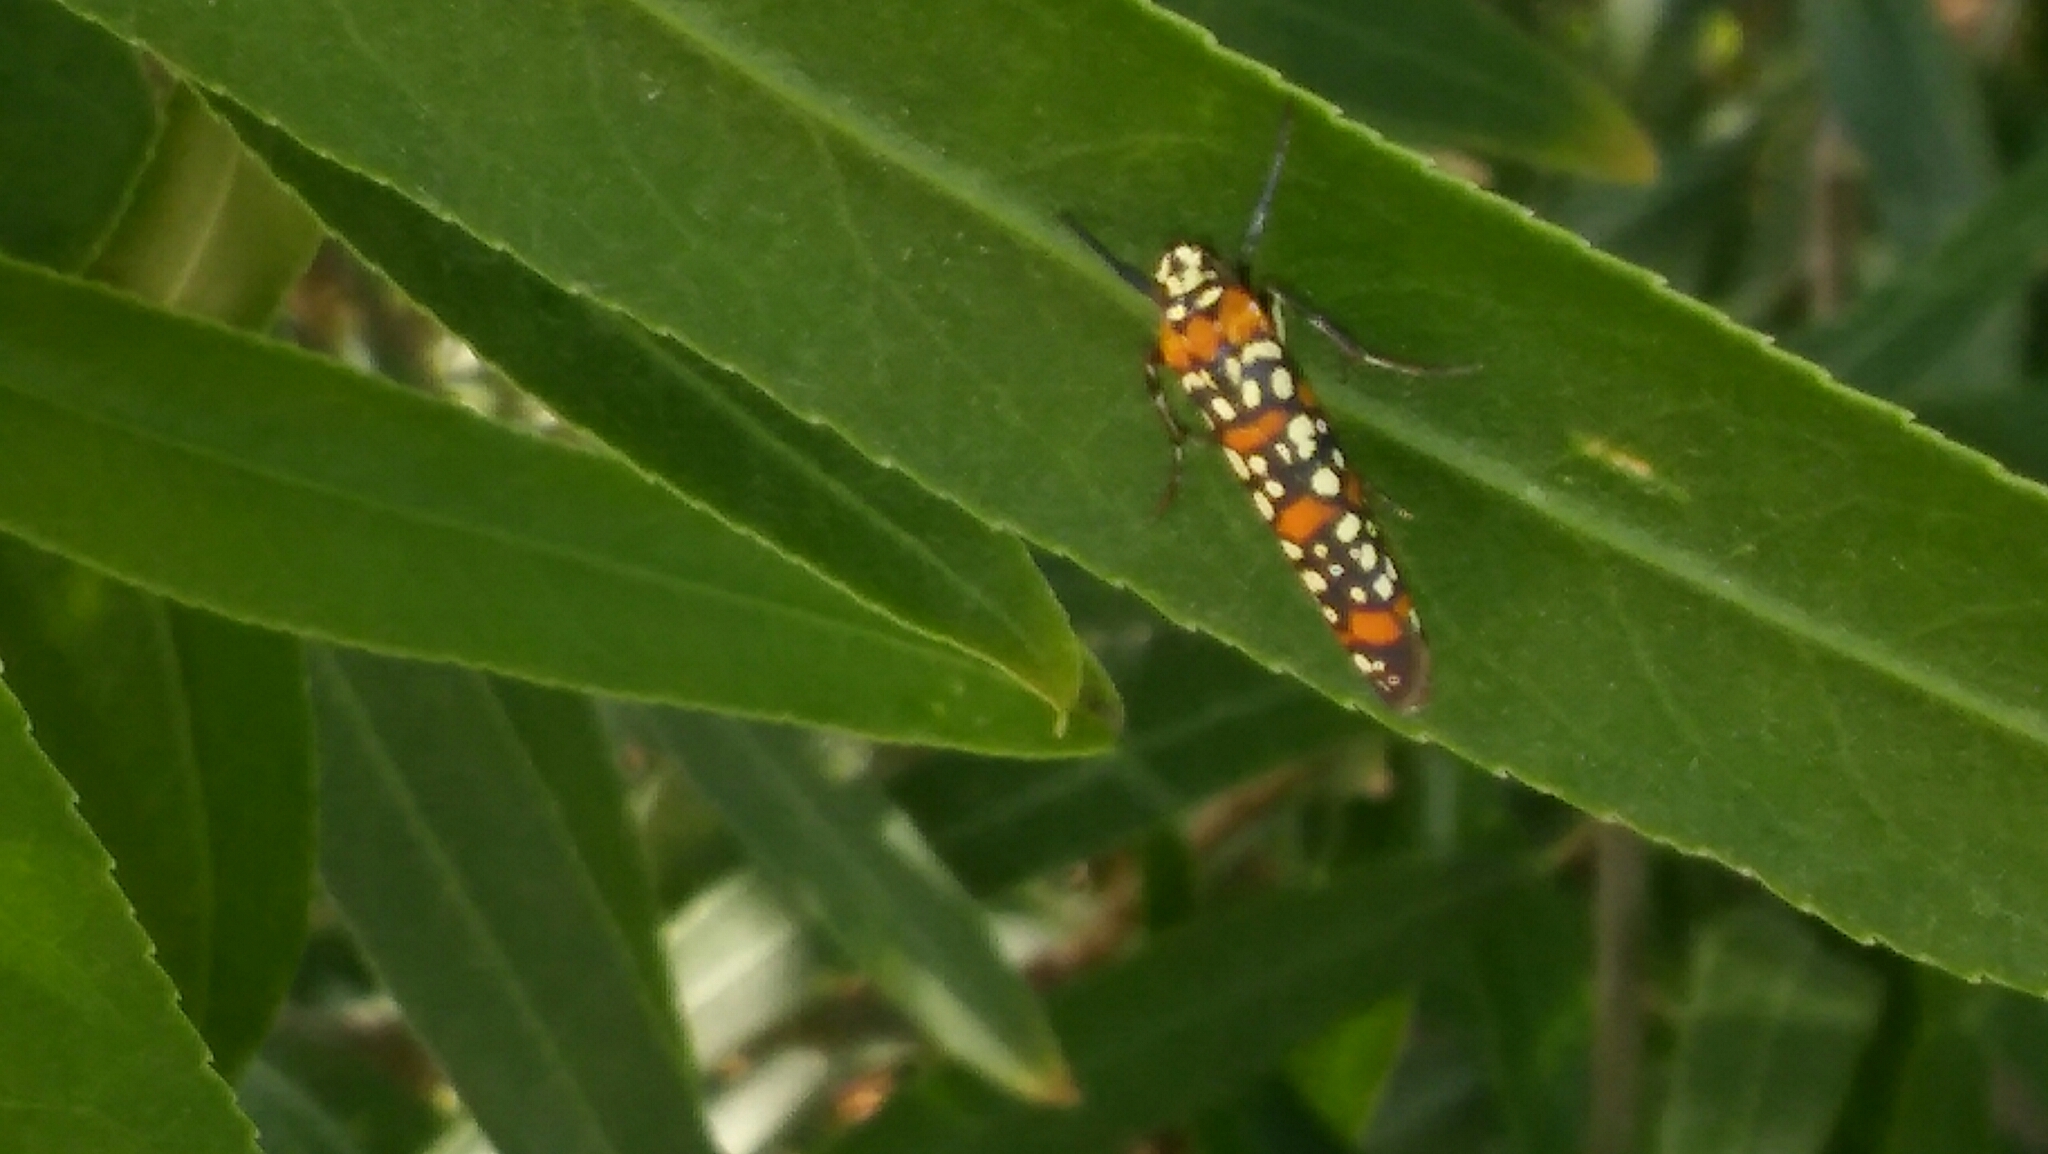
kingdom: Animalia
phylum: Arthropoda
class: Insecta
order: Lepidoptera
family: Attevidae
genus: Atteva
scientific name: Atteva punctella
